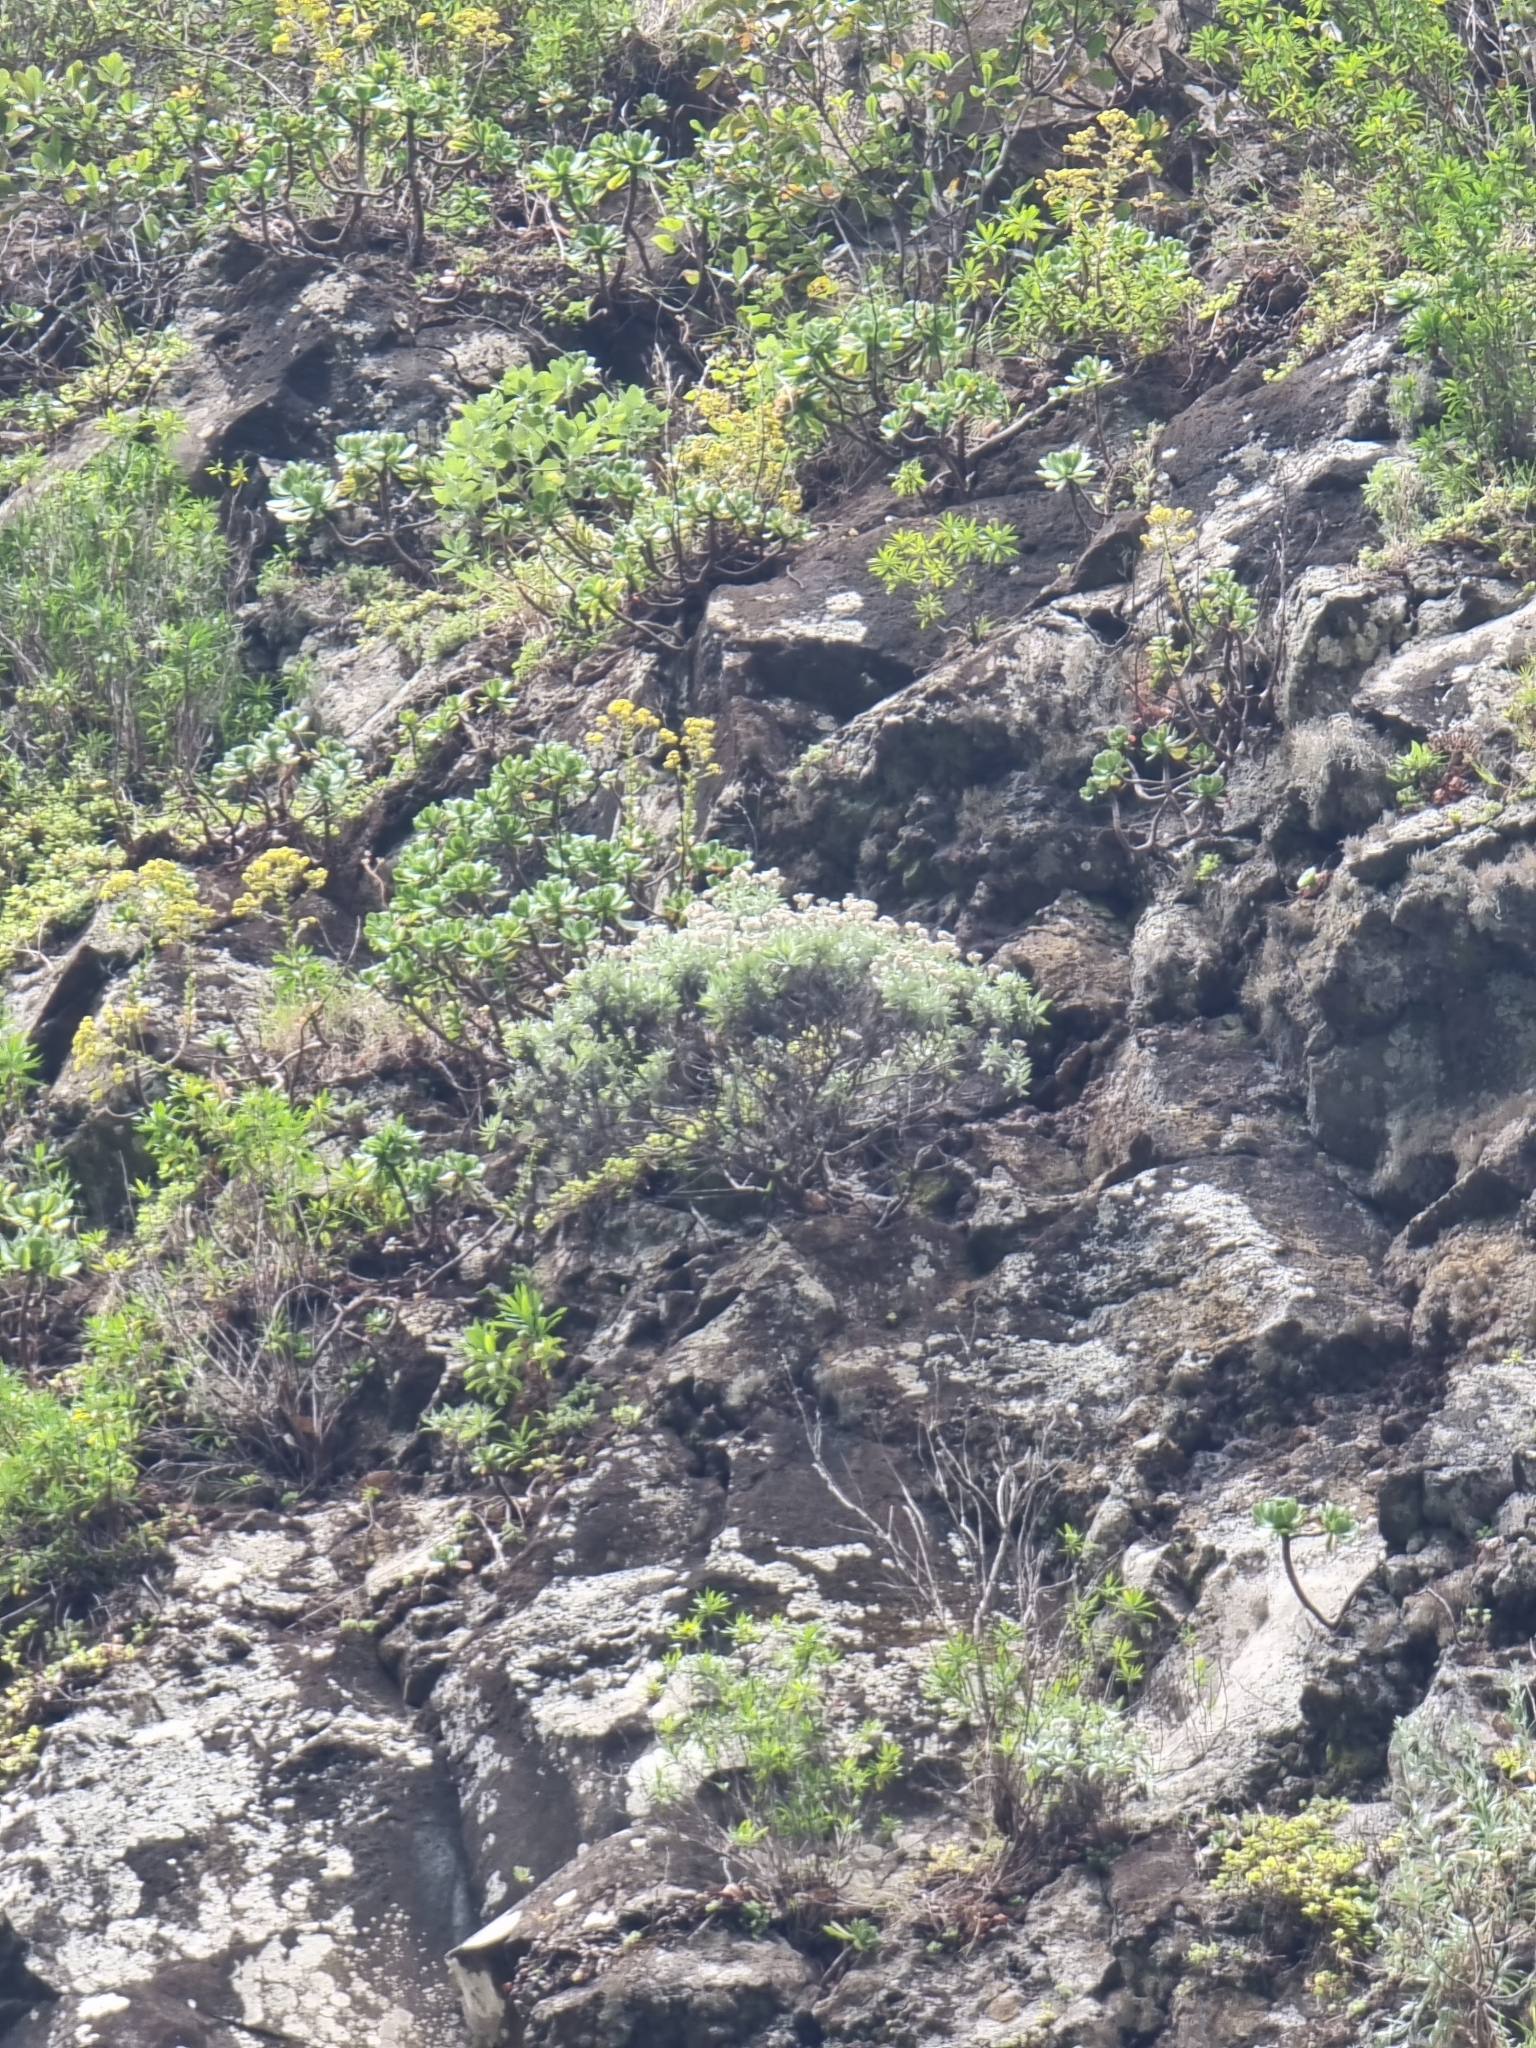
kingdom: Plantae
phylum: Tracheophyta
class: Magnoliopsida
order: Asterales
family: Asteraceae
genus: Helichrysum
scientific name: Helichrysum melaleucum
